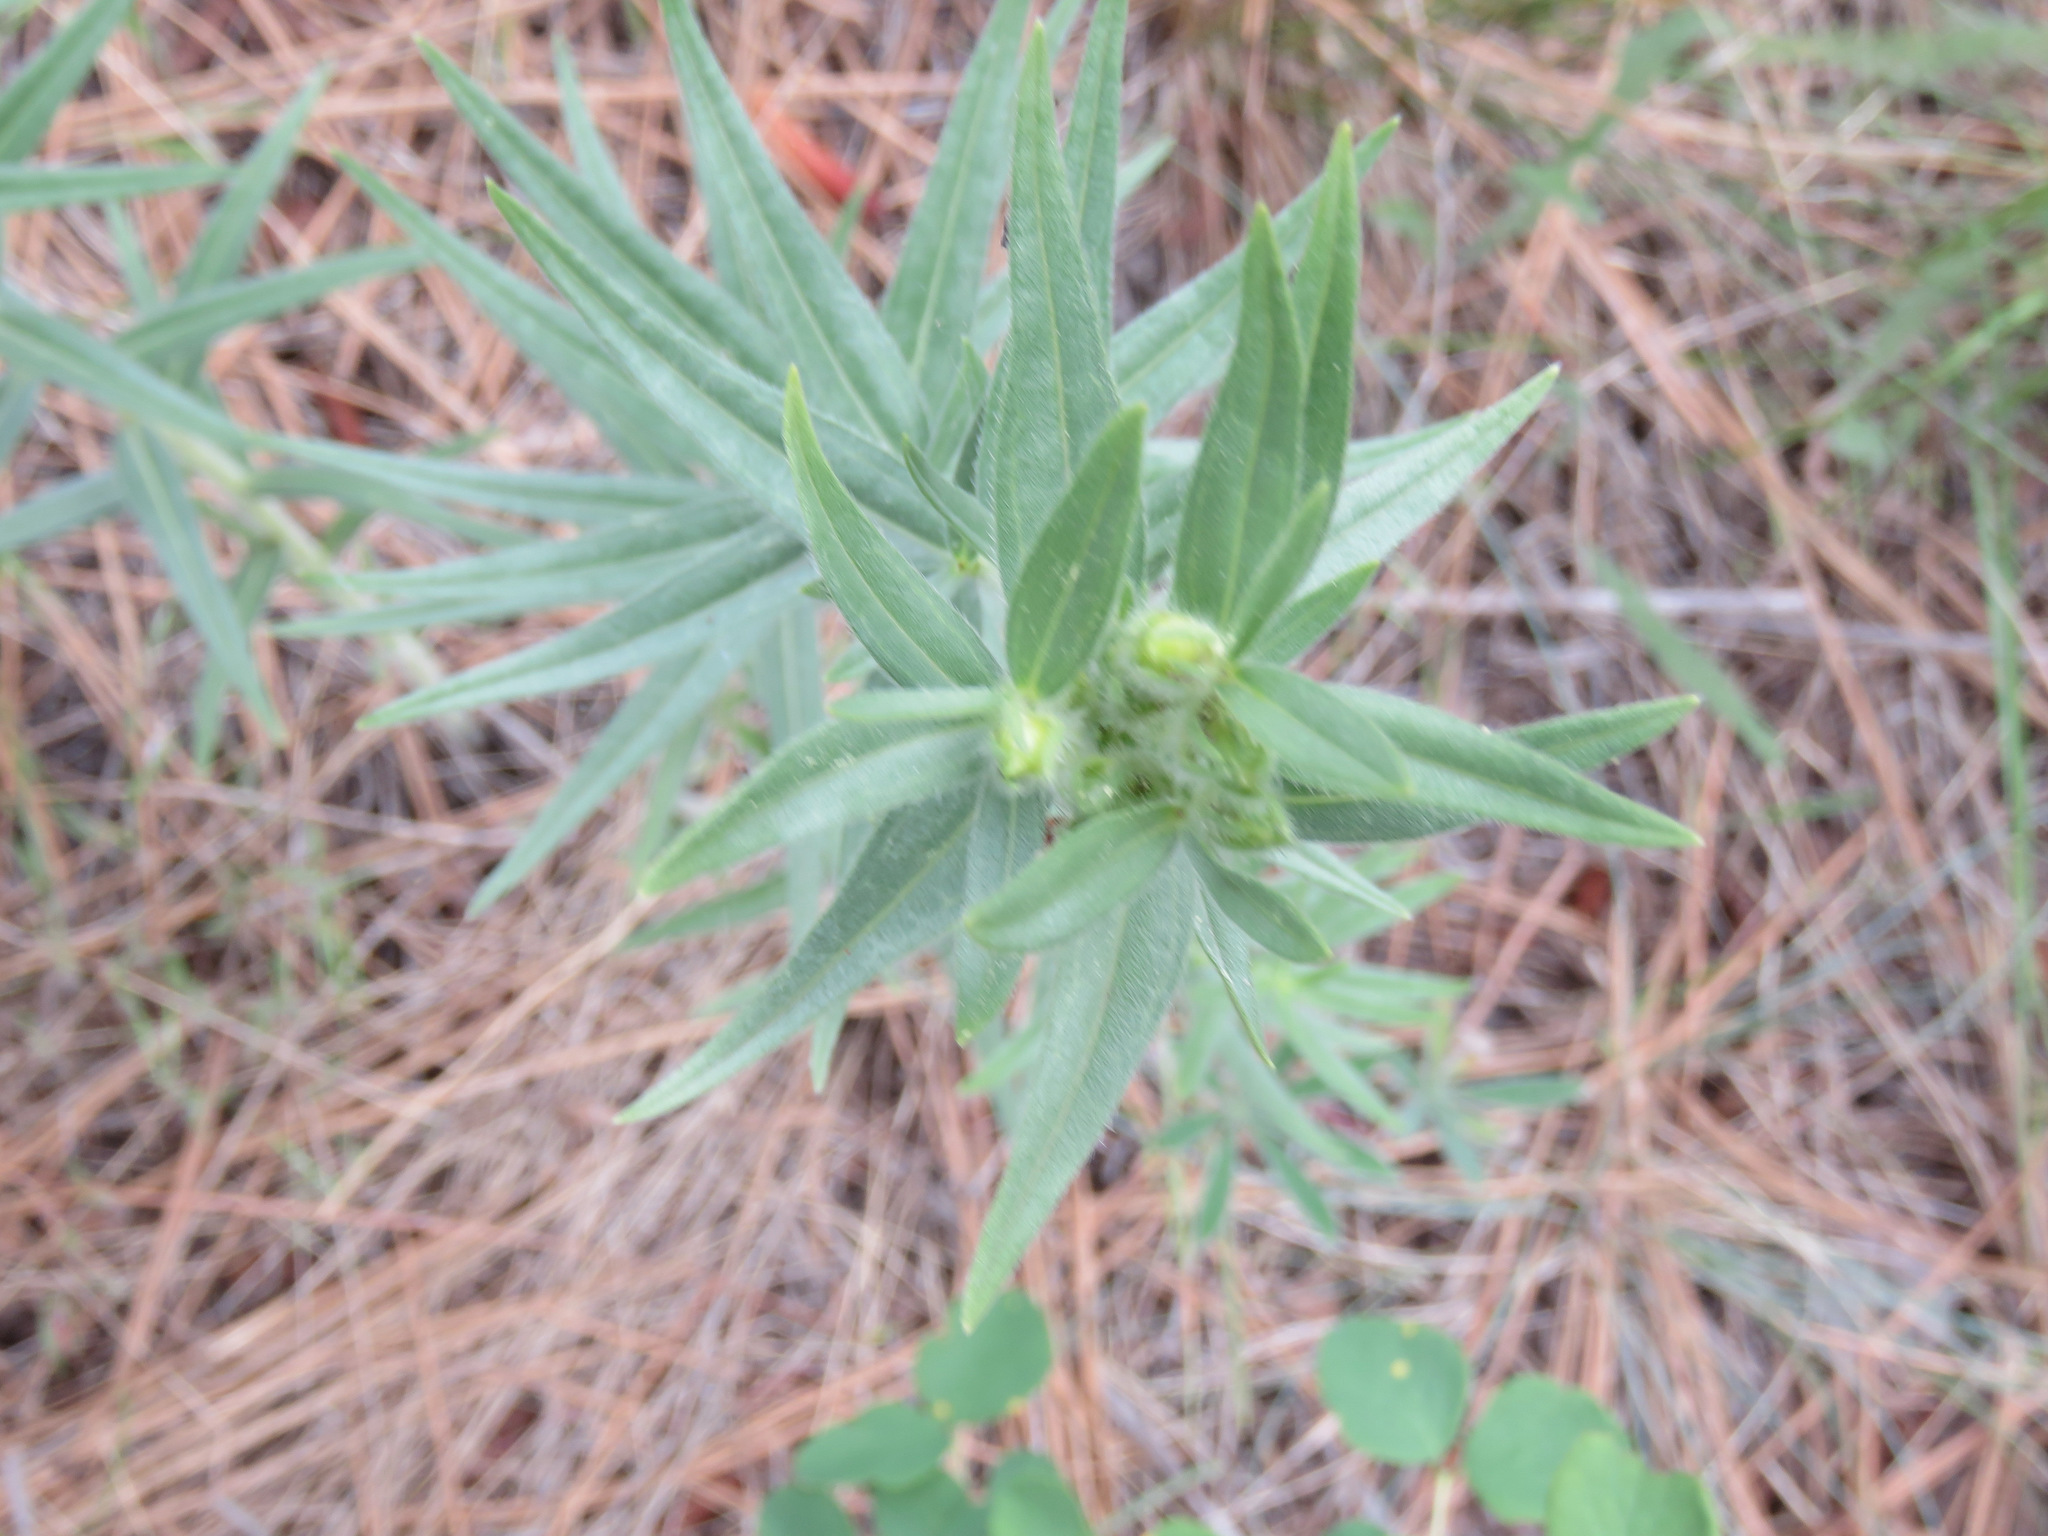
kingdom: Plantae
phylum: Tracheophyta
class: Magnoliopsida
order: Boraginales
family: Boraginaceae
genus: Lithospermum
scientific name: Lithospermum ruderale
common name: Western gromwell
